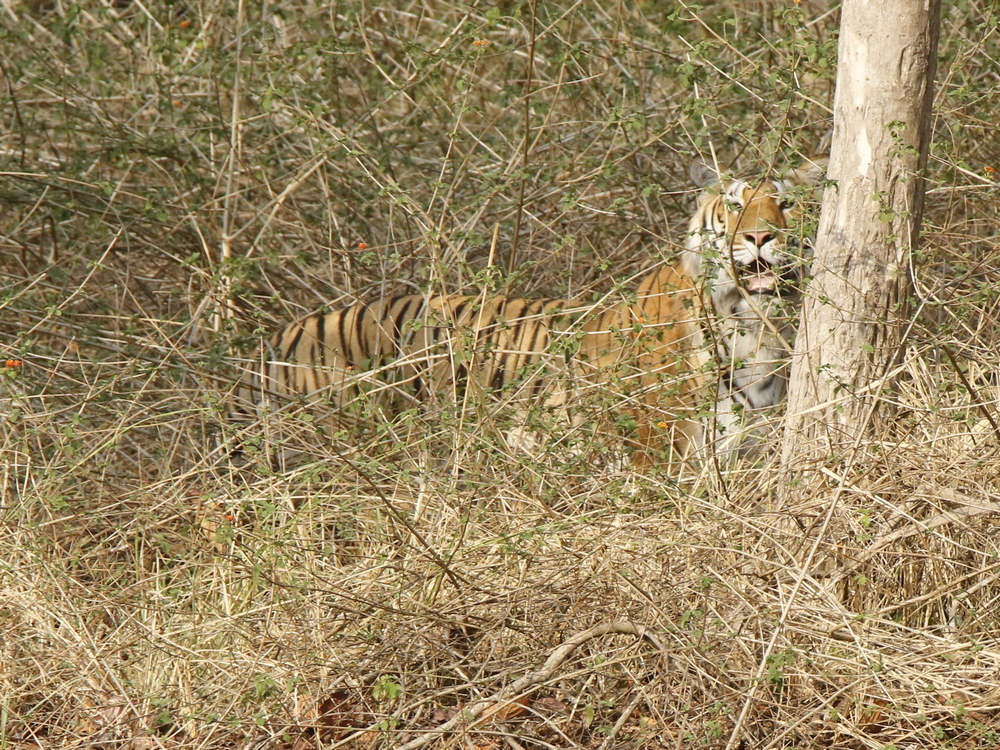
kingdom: Animalia
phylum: Chordata
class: Mammalia
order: Carnivora
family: Felidae
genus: Panthera
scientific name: Panthera tigris
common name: Tiger
